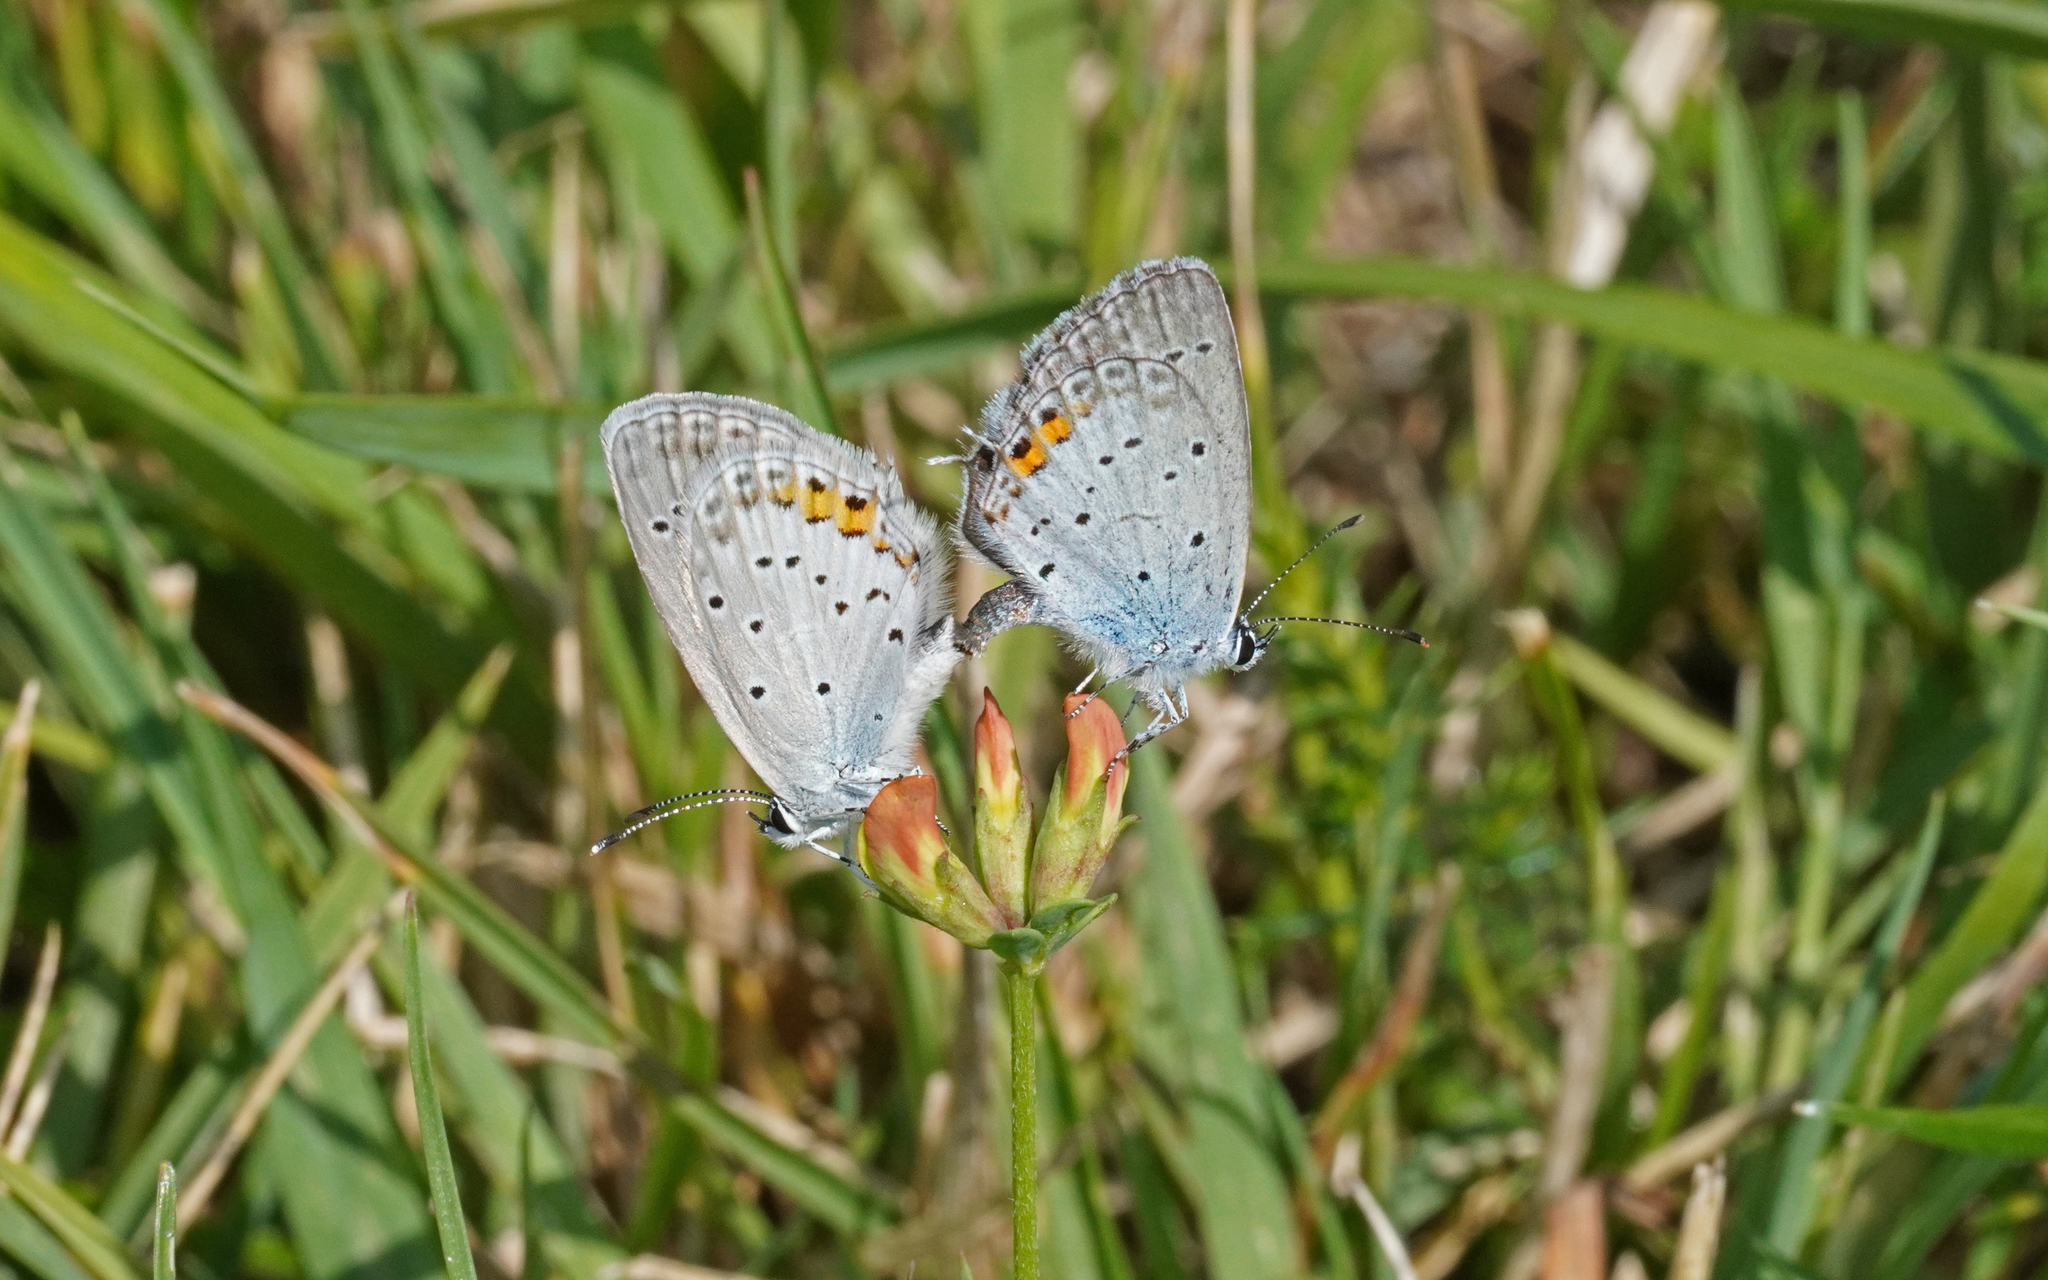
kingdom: Animalia
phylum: Arthropoda
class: Insecta
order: Lepidoptera
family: Lycaenidae
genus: Elkalyce
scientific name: Elkalyce argiades
